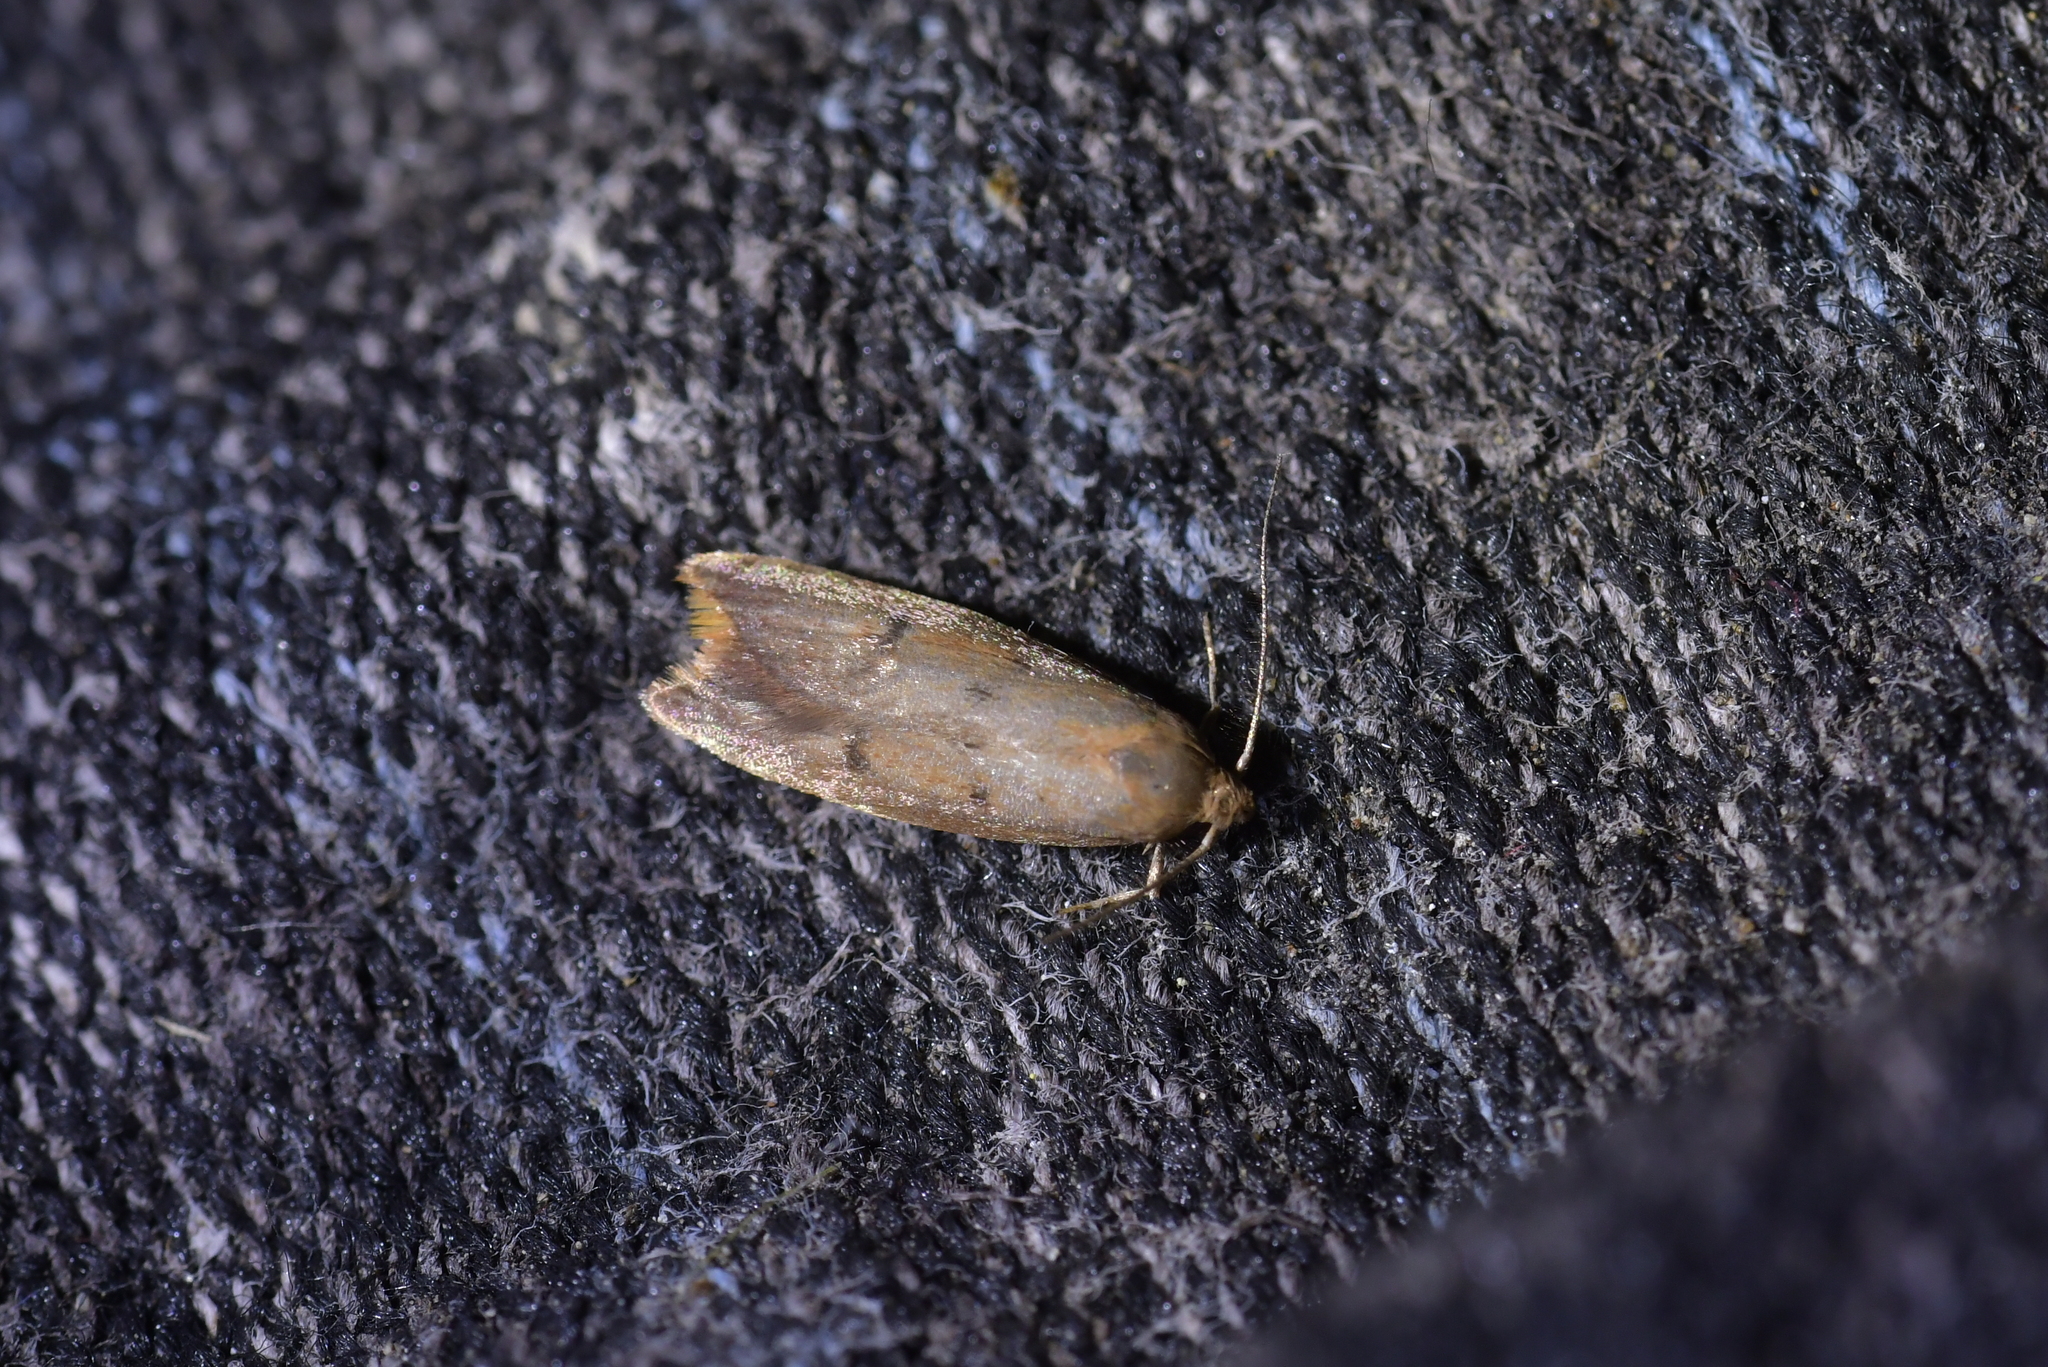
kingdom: Animalia
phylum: Arthropoda
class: Insecta
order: Lepidoptera
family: Oecophoridae
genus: Tachystola
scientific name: Tachystola acroxantha
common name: Ruddy streak
